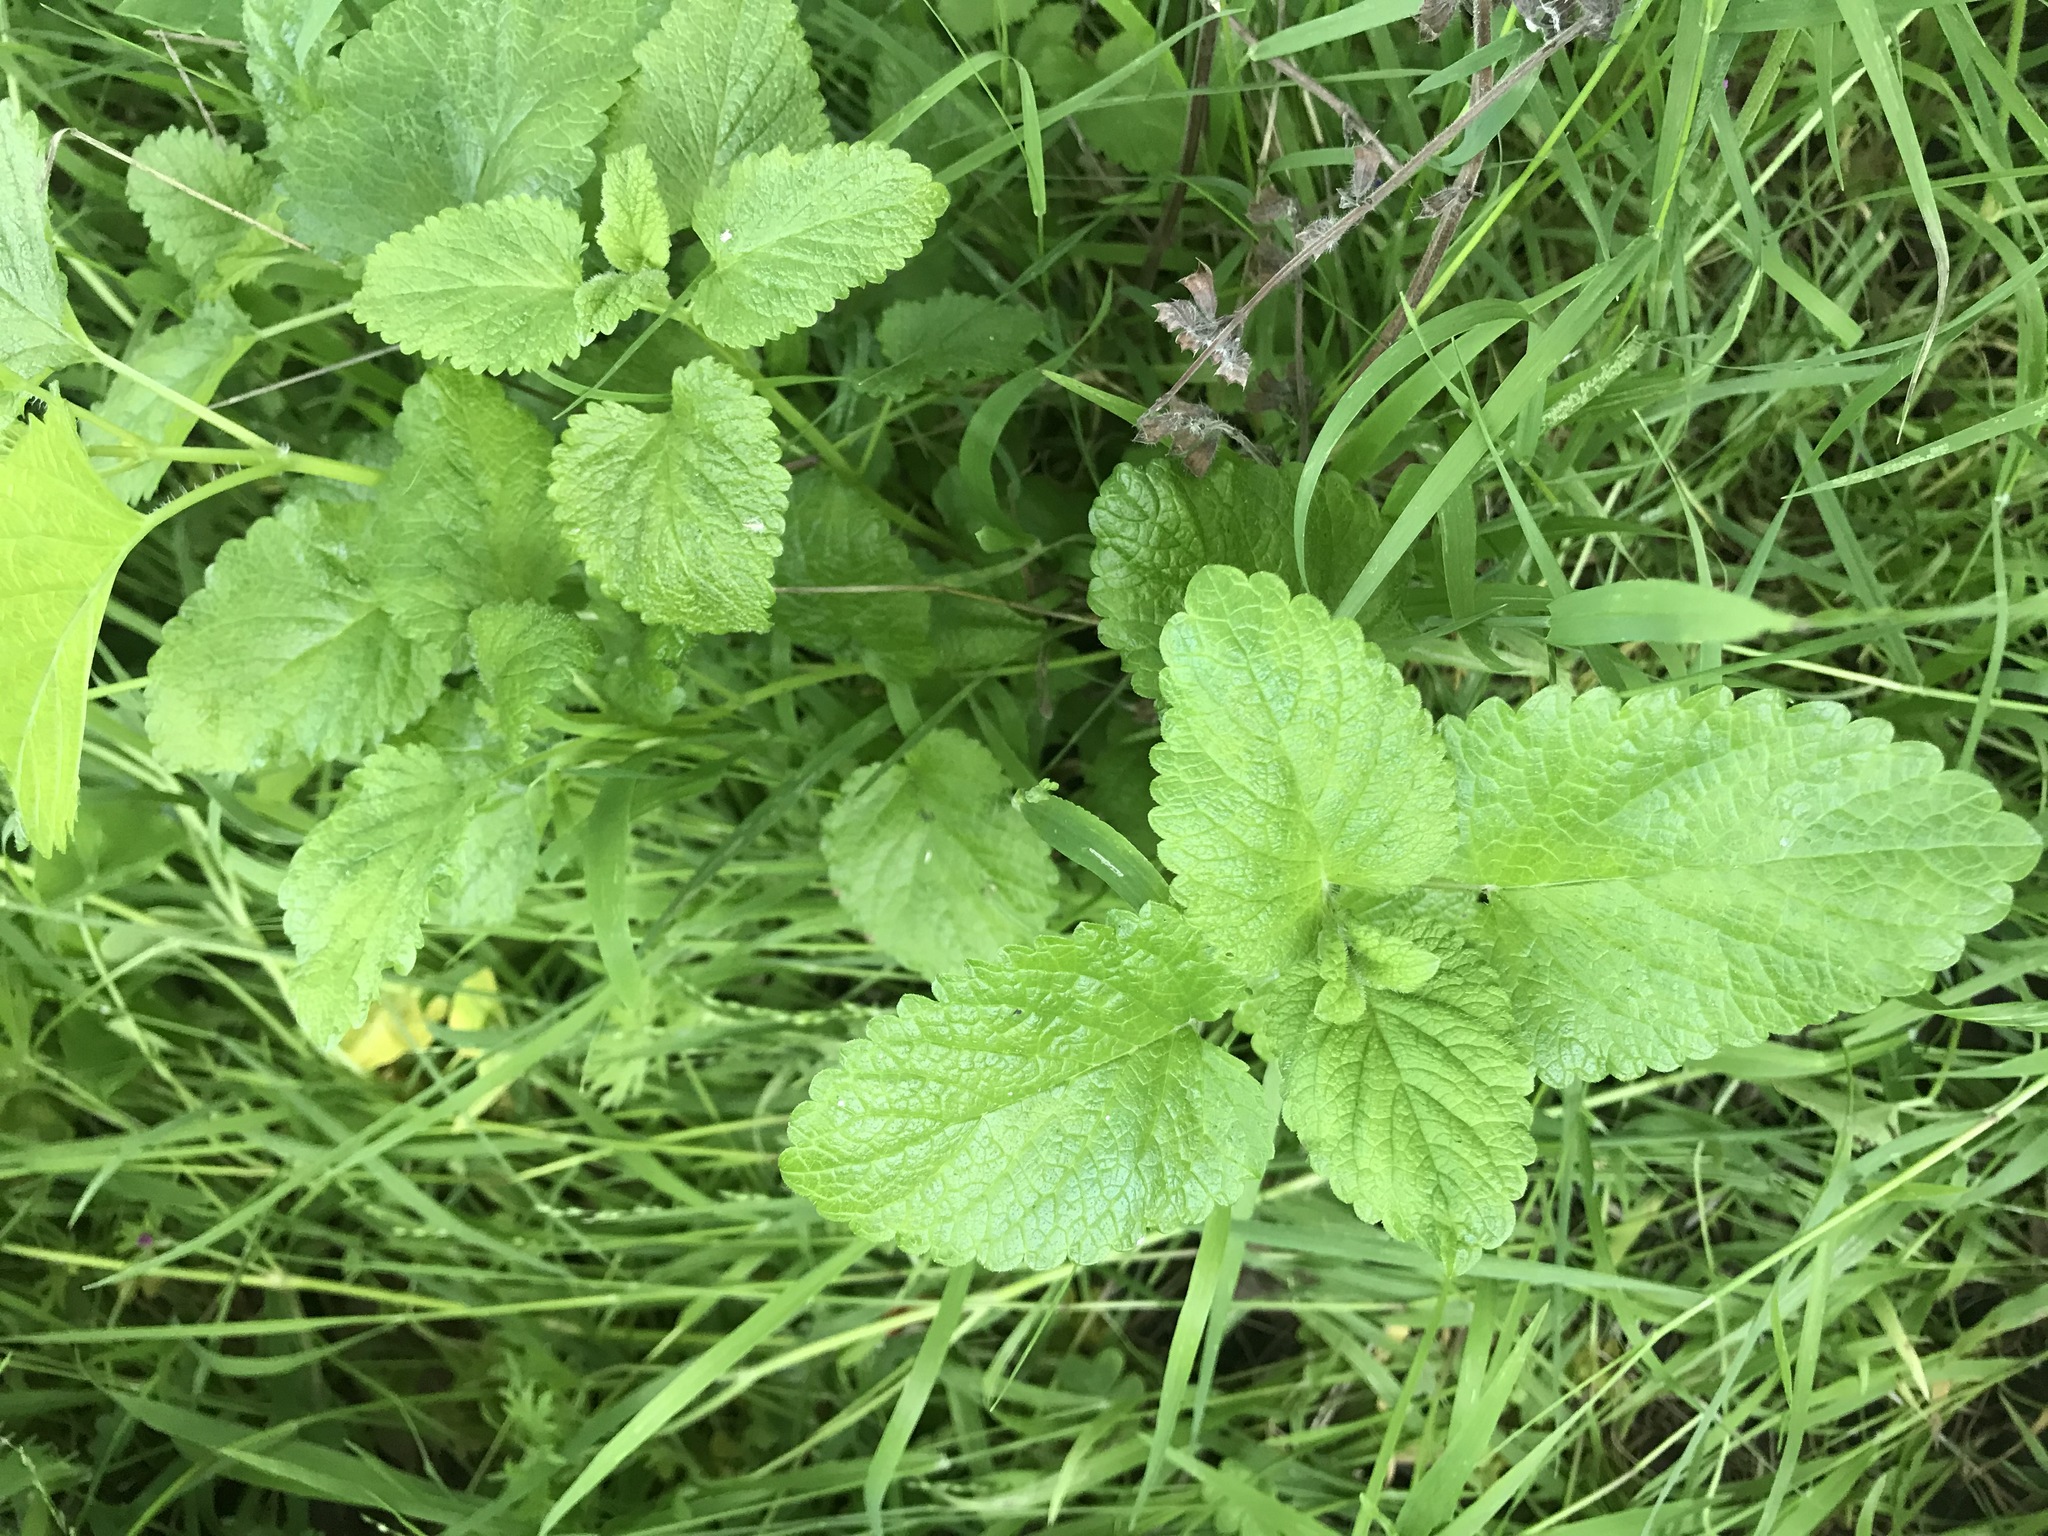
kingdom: Plantae
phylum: Tracheophyta
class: Magnoliopsida
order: Lamiales
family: Lamiaceae
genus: Melissa
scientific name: Melissa officinalis
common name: Balm
